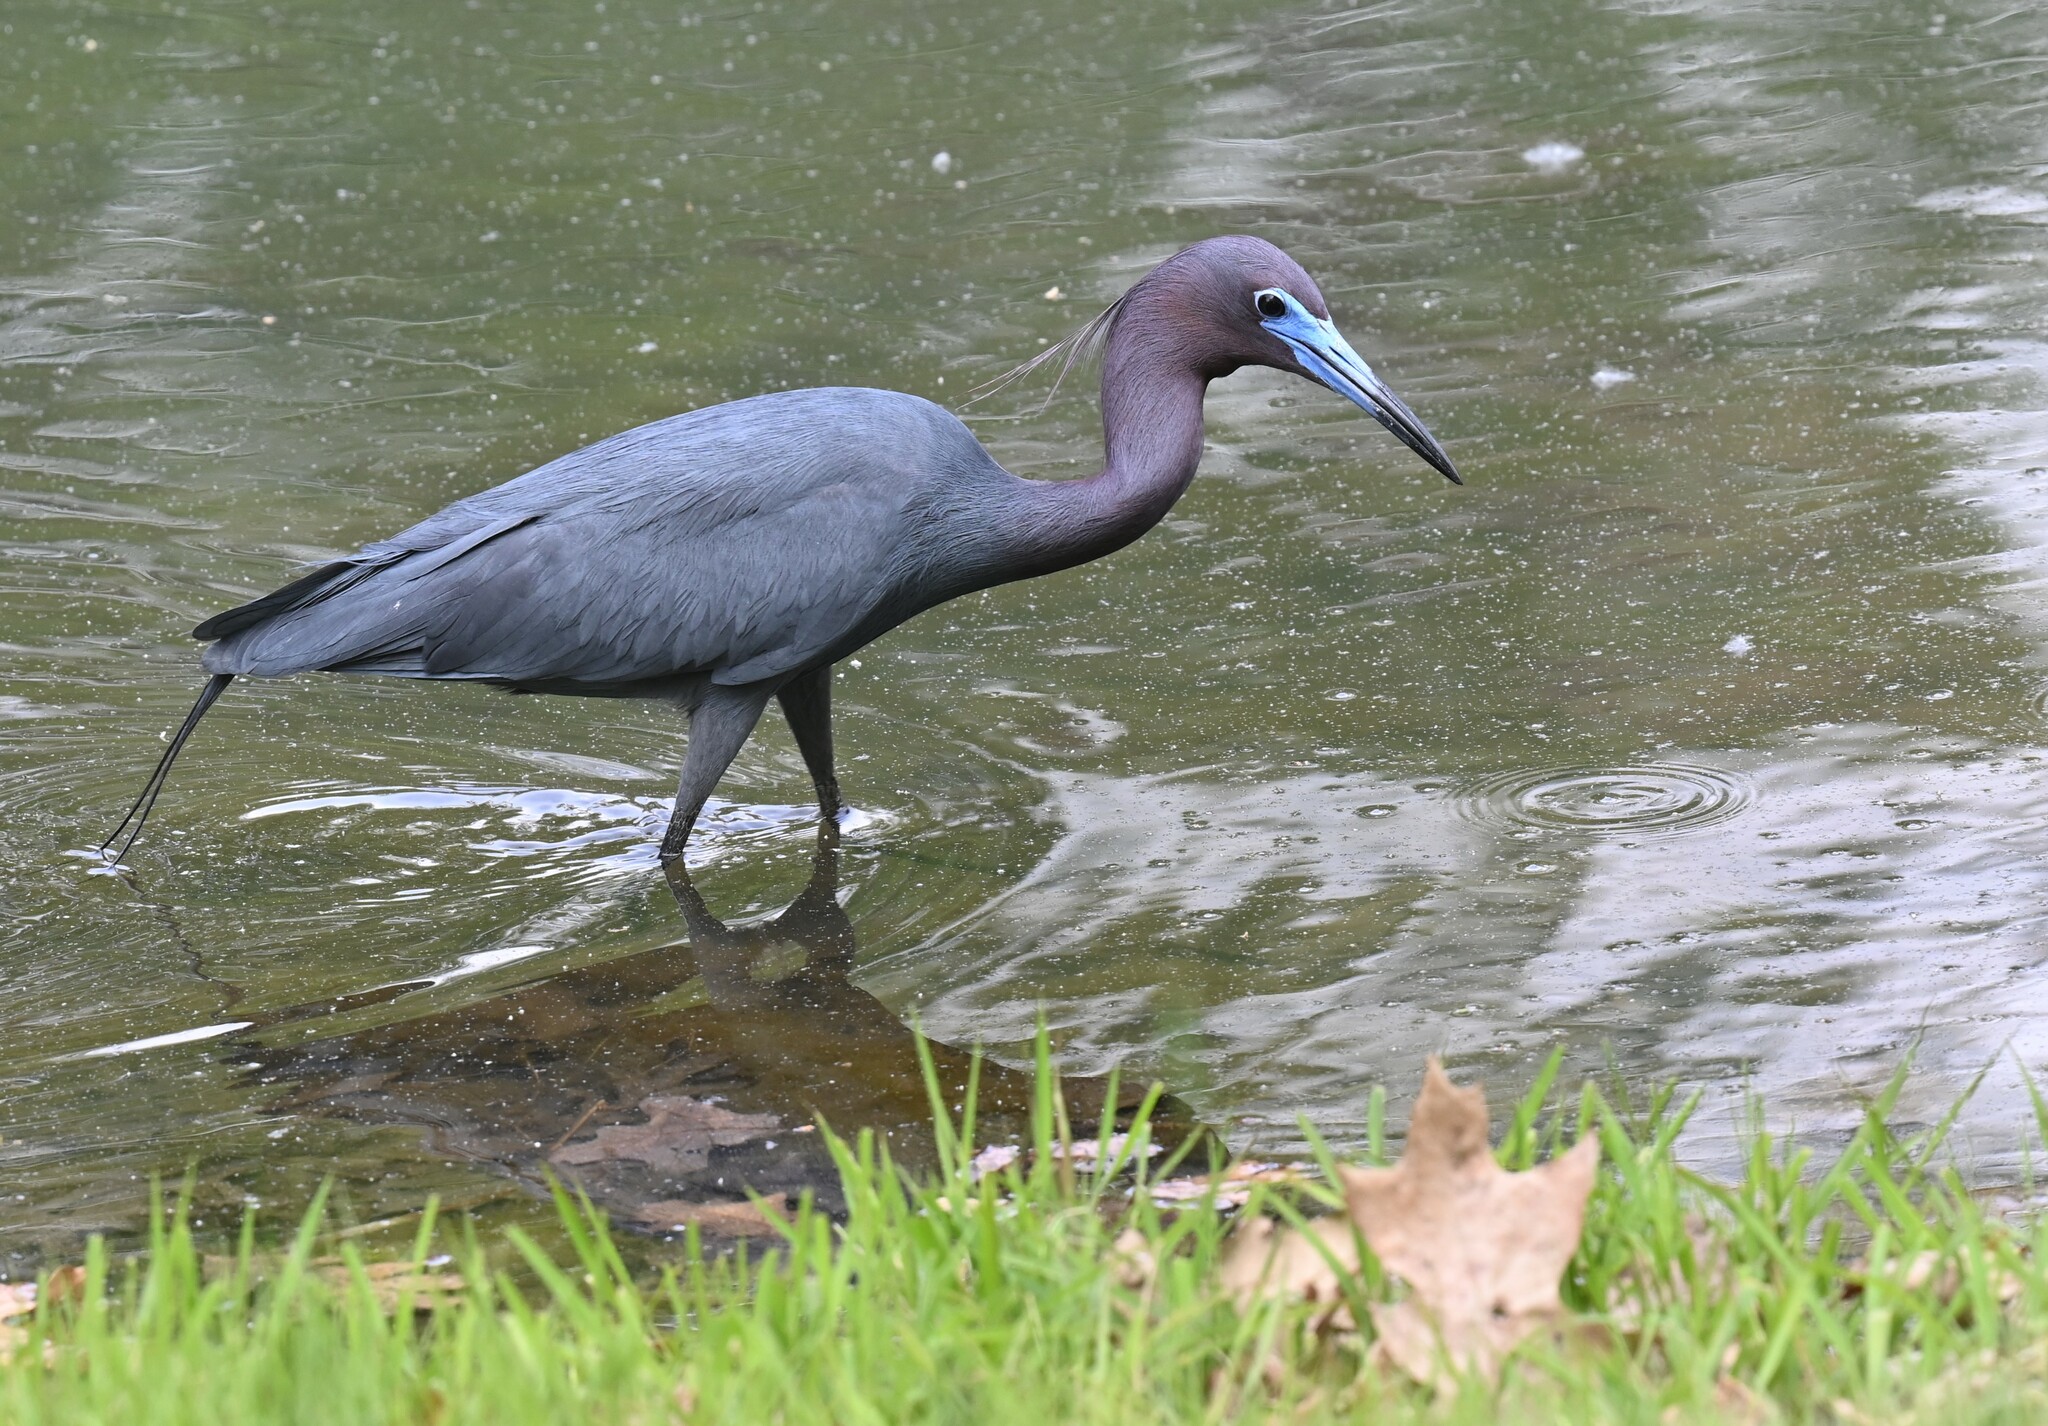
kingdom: Animalia
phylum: Chordata
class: Aves
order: Pelecaniformes
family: Ardeidae
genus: Egretta
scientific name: Egretta caerulea
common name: Little blue heron
